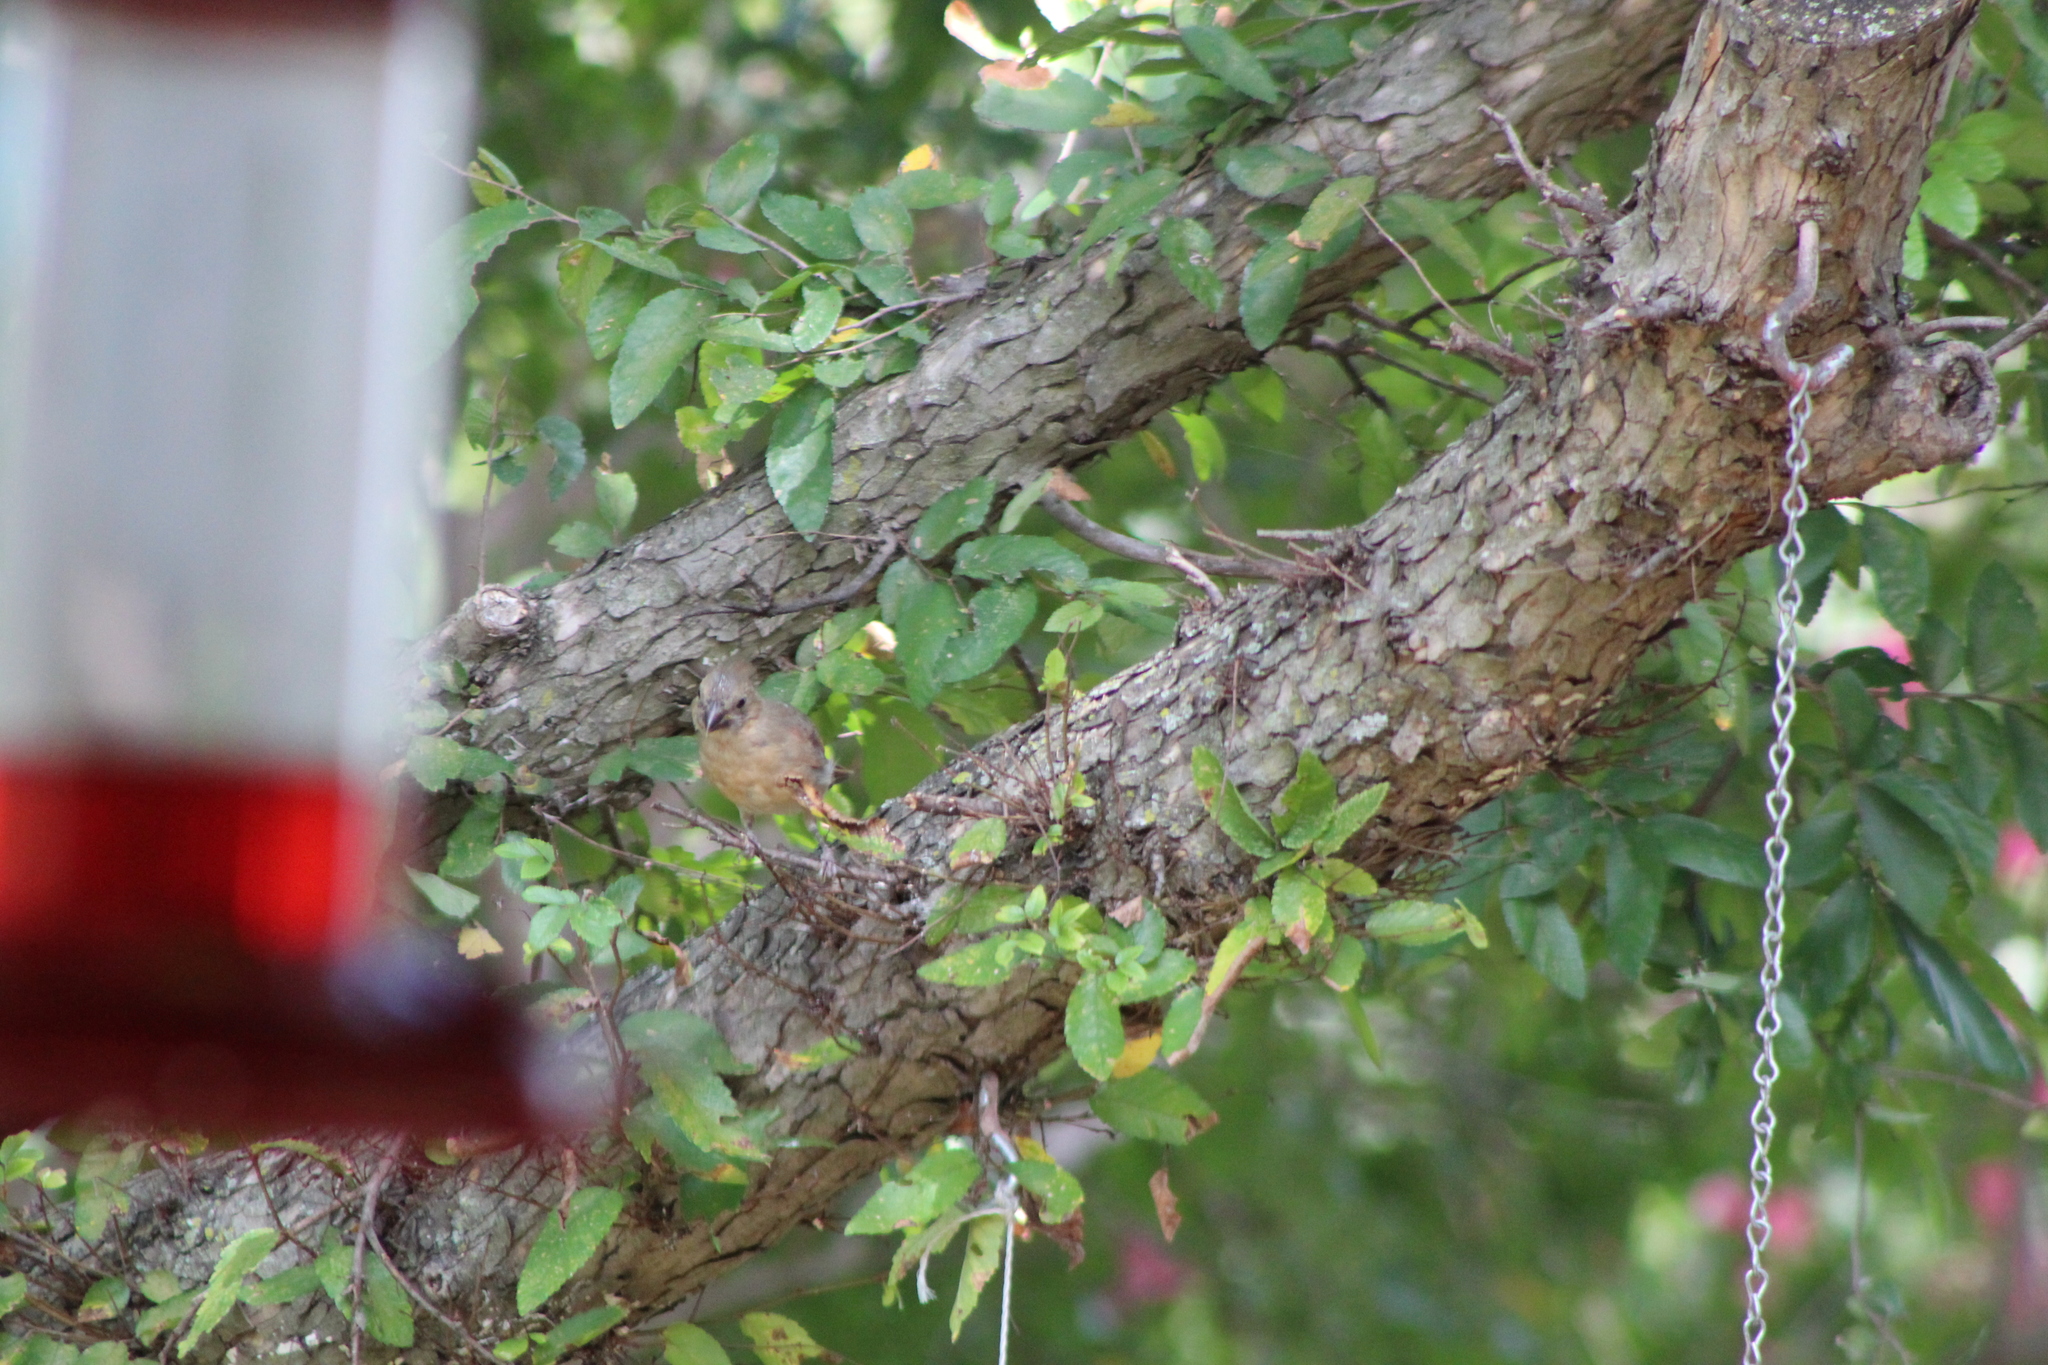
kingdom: Animalia
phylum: Chordata
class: Aves
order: Passeriformes
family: Cardinalidae
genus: Cardinalis
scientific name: Cardinalis cardinalis
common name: Northern cardinal
